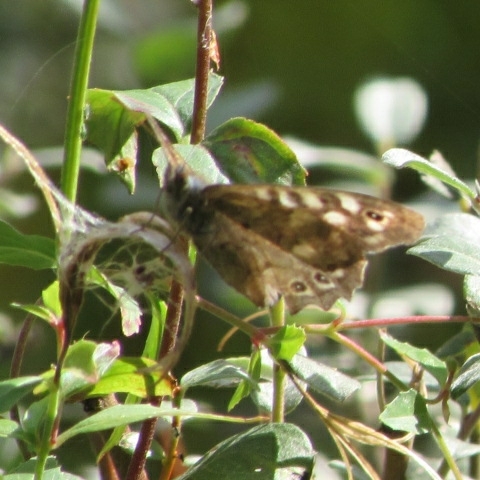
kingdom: Animalia
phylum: Arthropoda
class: Insecta
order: Lepidoptera
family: Nymphalidae
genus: Pararge
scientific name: Pararge aegeria
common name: Speckled wood
